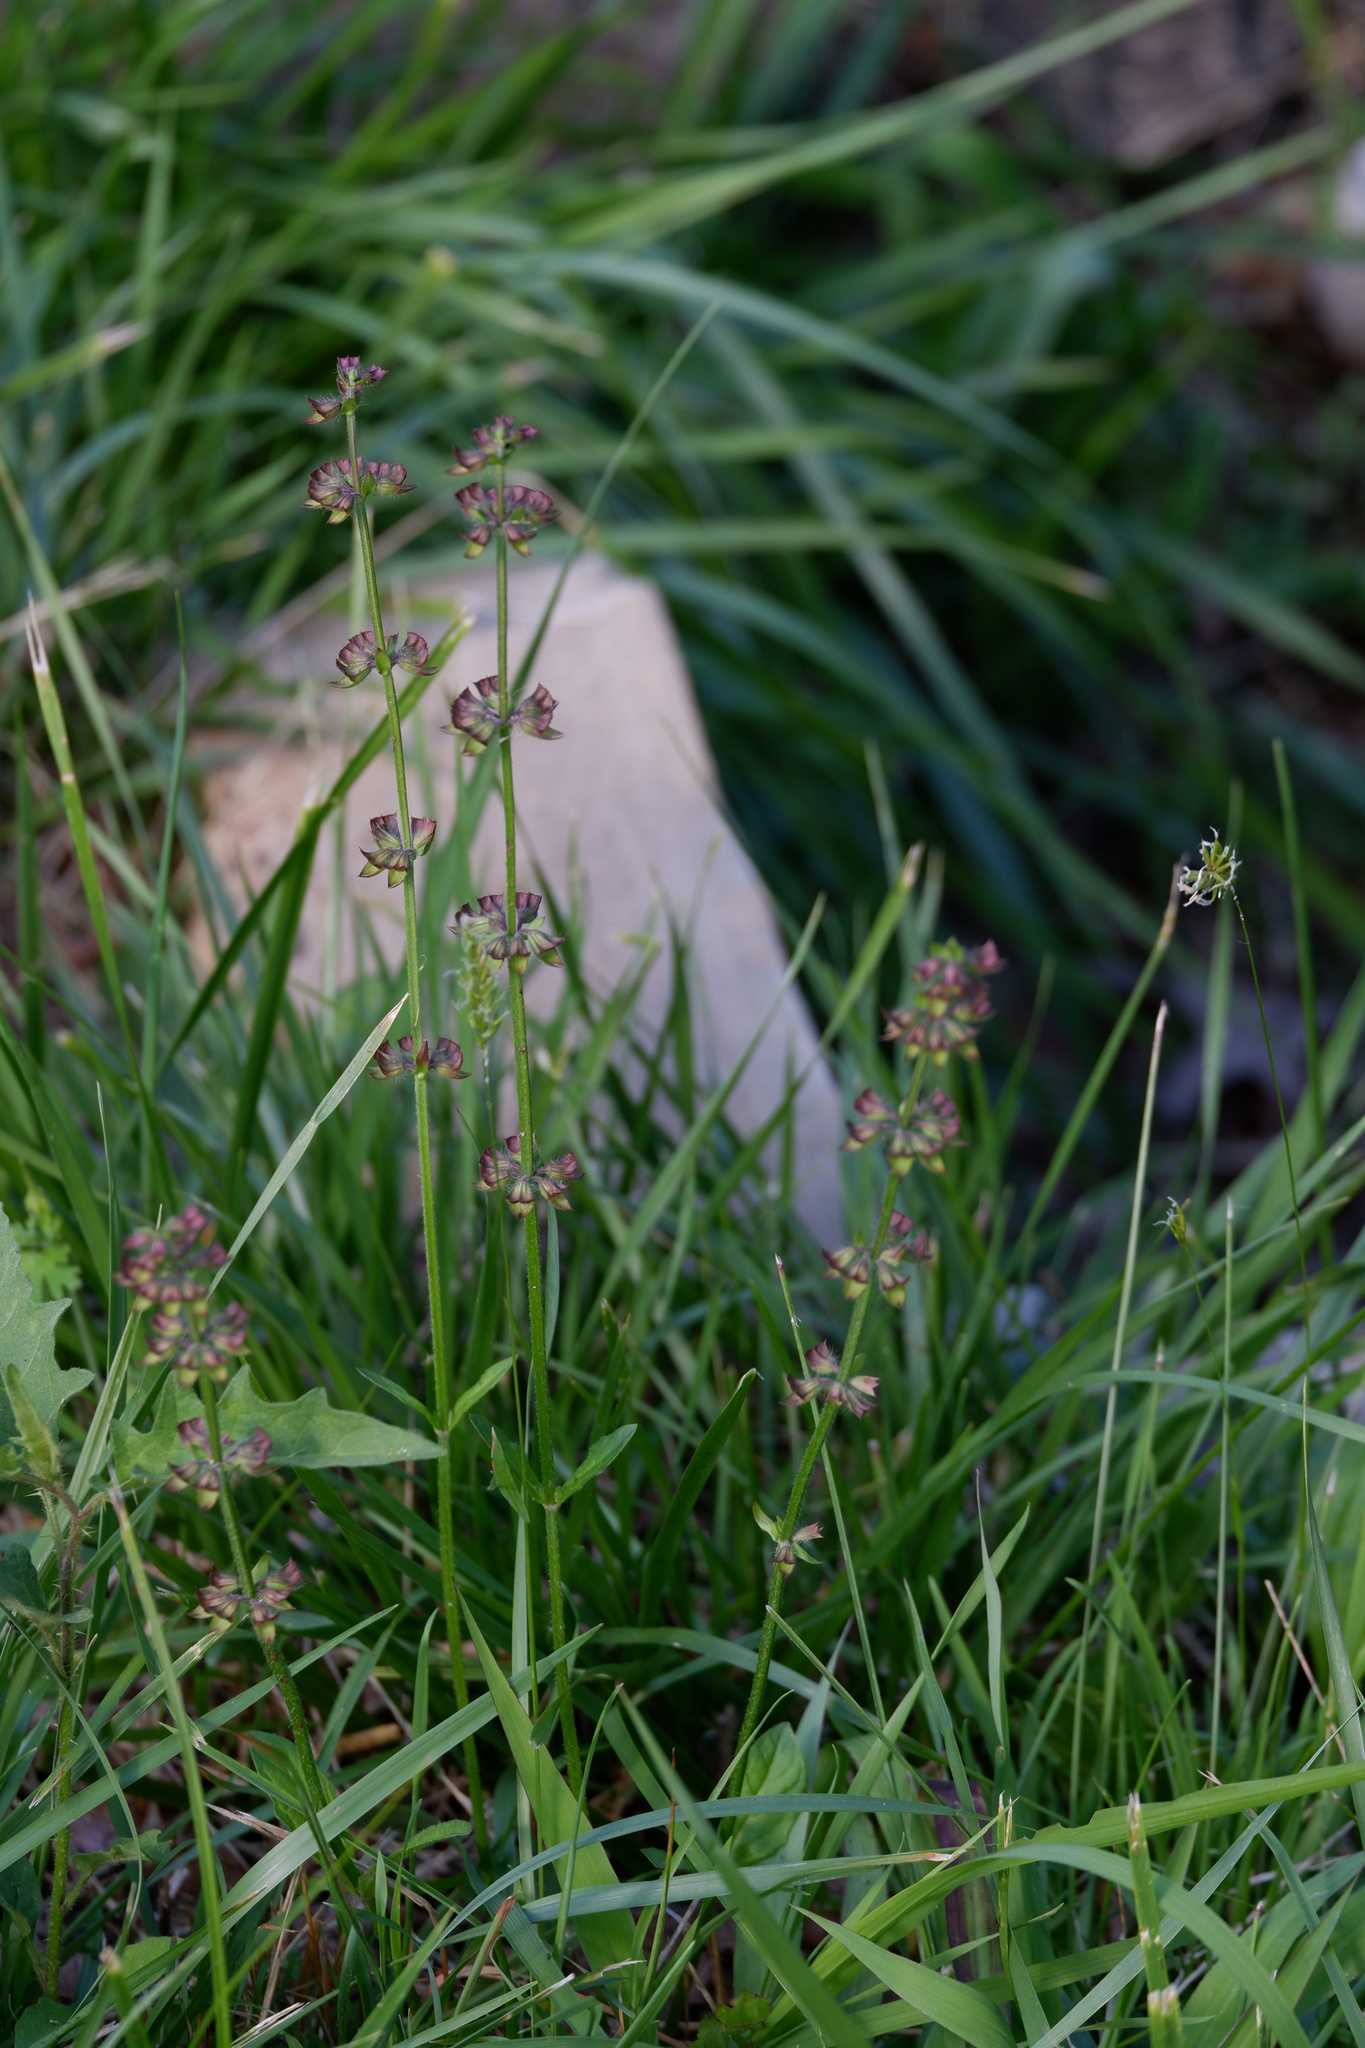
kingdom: Plantae
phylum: Tracheophyta
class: Magnoliopsida
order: Lamiales
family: Lamiaceae
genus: Salvia
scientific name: Salvia lyrata
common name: Cancerweed
